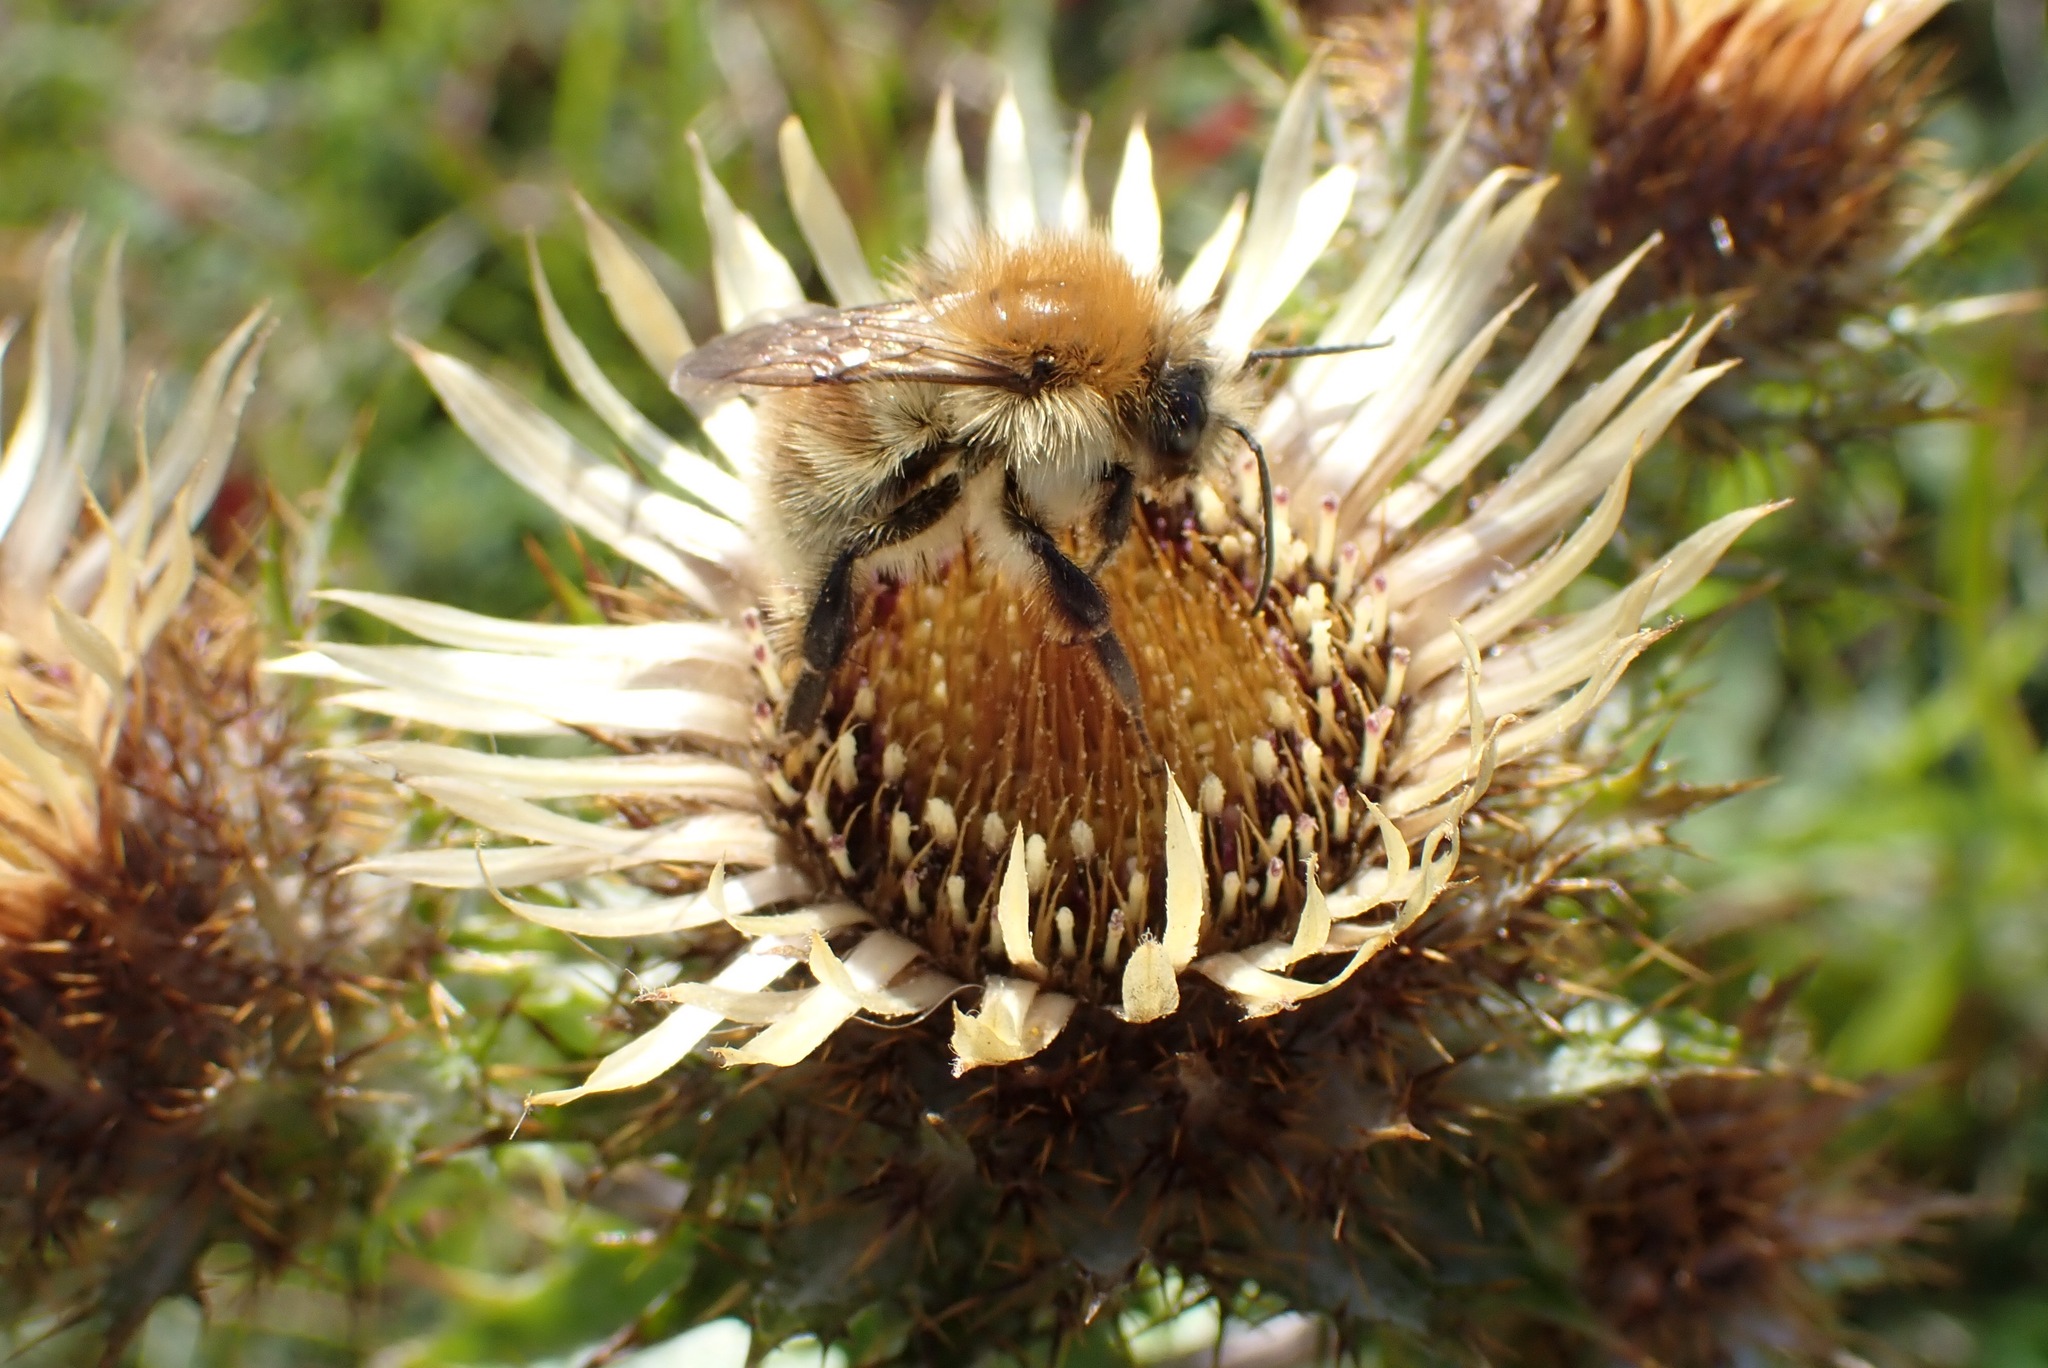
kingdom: Plantae
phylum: Tracheophyta
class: Magnoliopsida
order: Asterales
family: Asteraceae
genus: Carlina
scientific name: Carlina vulgaris
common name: Carline thistle
